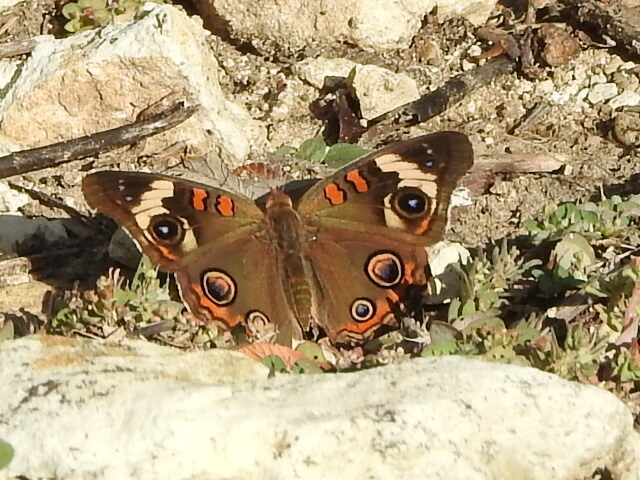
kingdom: Animalia
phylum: Arthropoda
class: Insecta
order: Lepidoptera
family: Nymphalidae
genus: Junonia
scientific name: Junonia coenia
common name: Common buckeye
